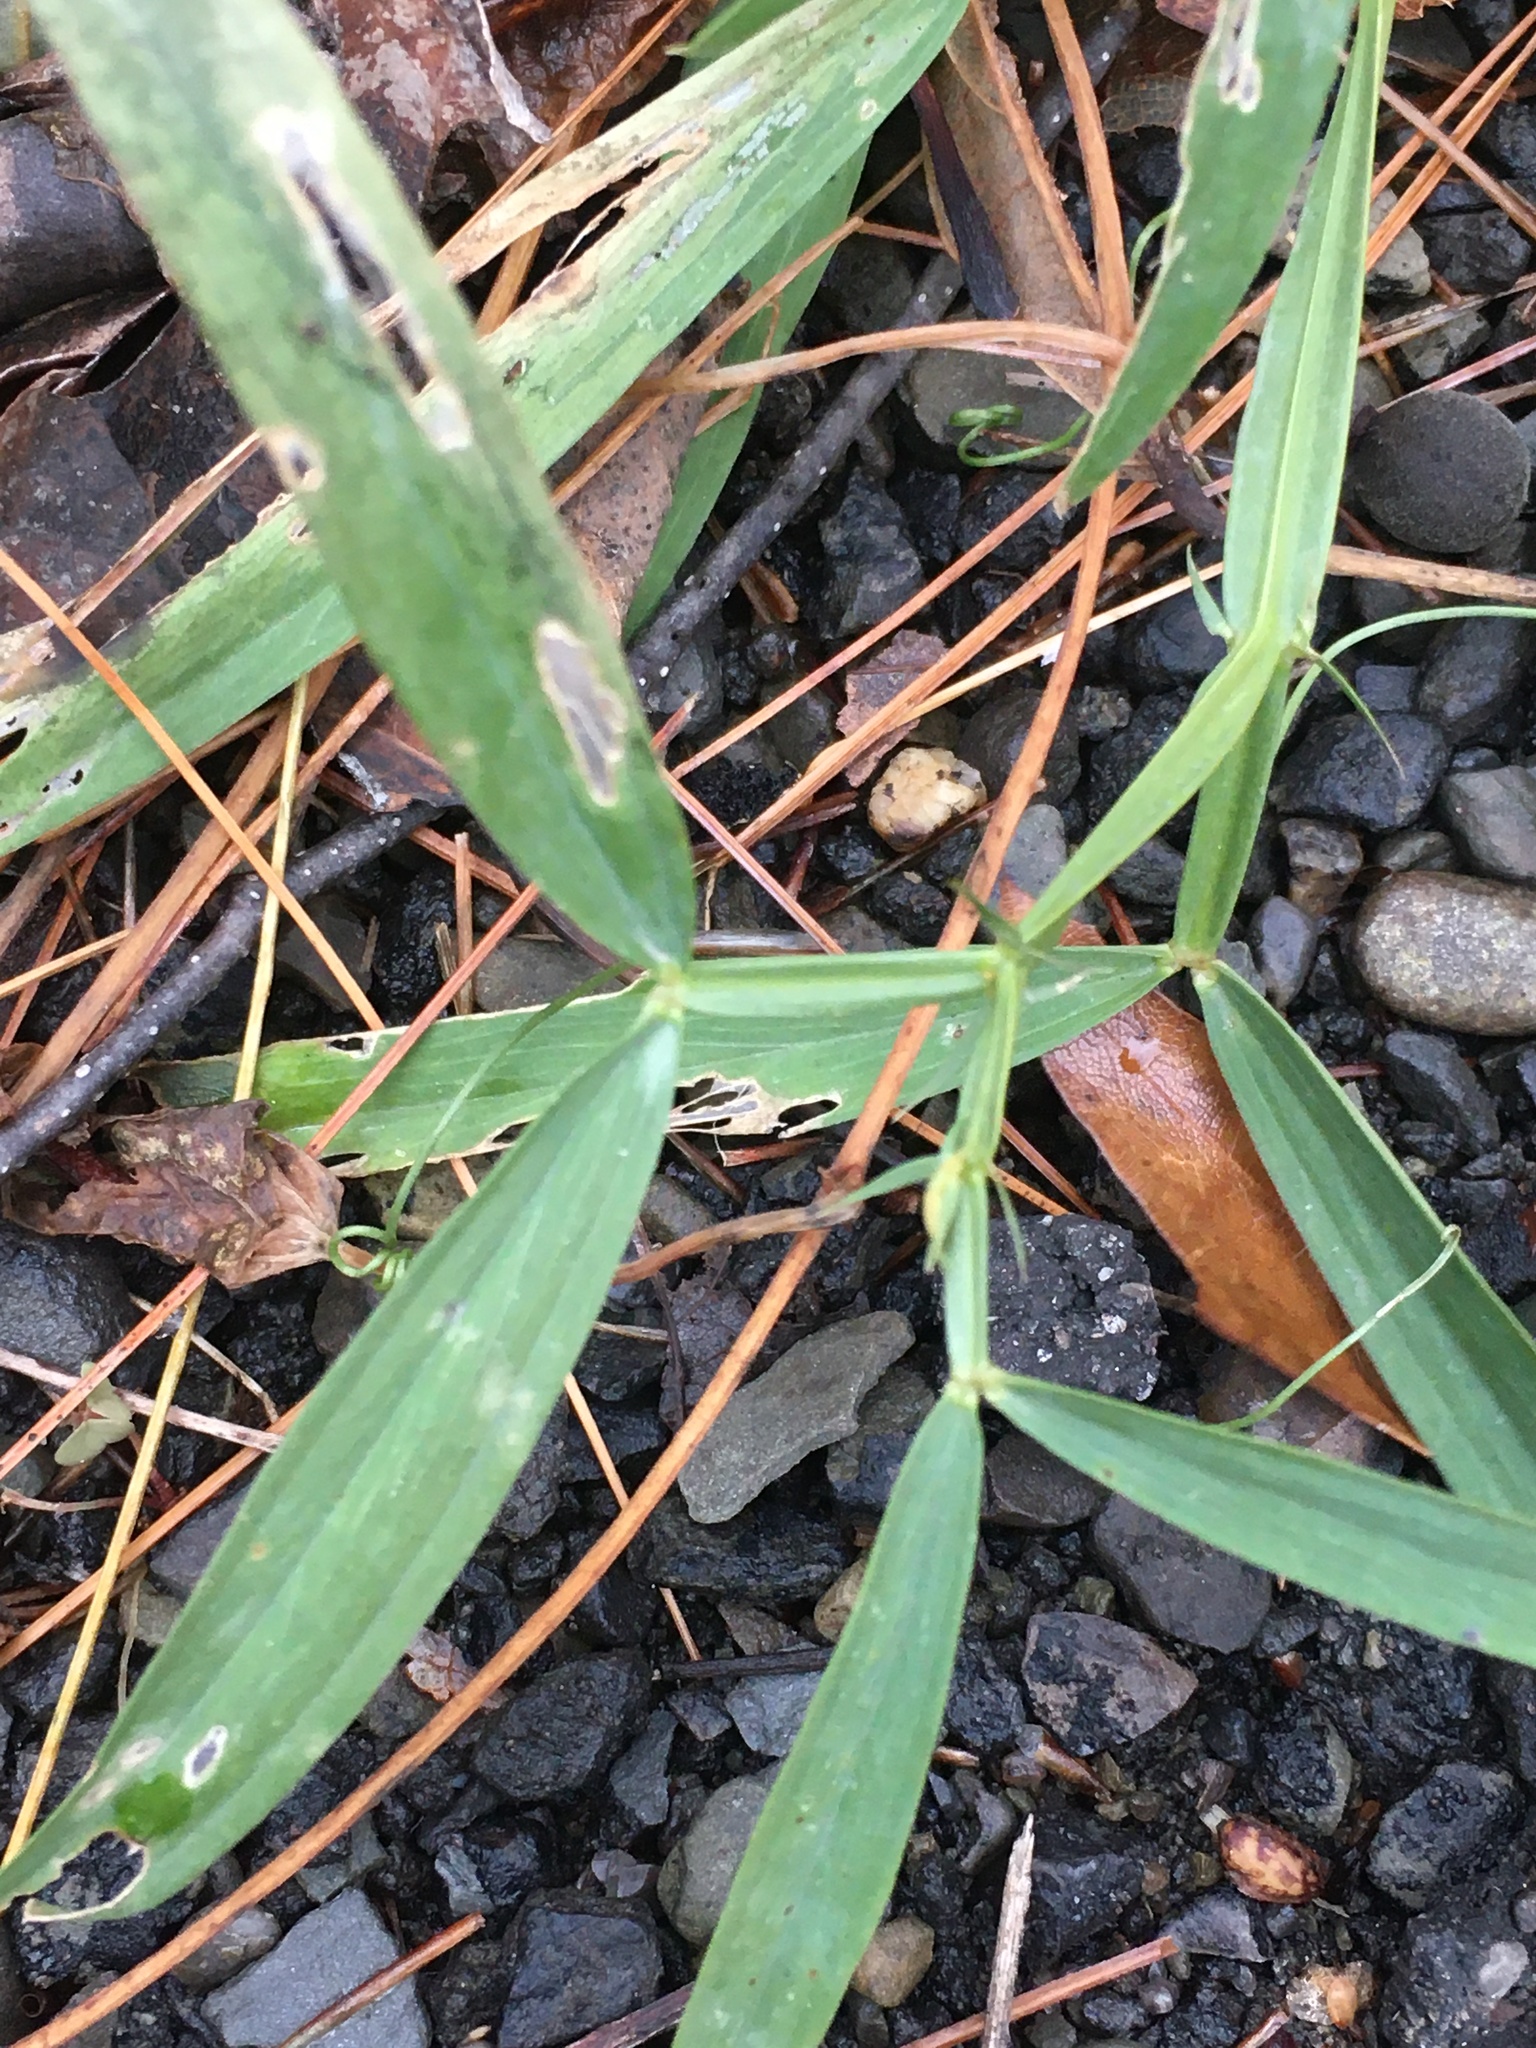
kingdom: Plantae
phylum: Tracheophyta
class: Magnoliopsida
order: Fabales
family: Fabaceae
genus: Lathyrus
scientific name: Lathyrus latifolius
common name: Perennial pea
